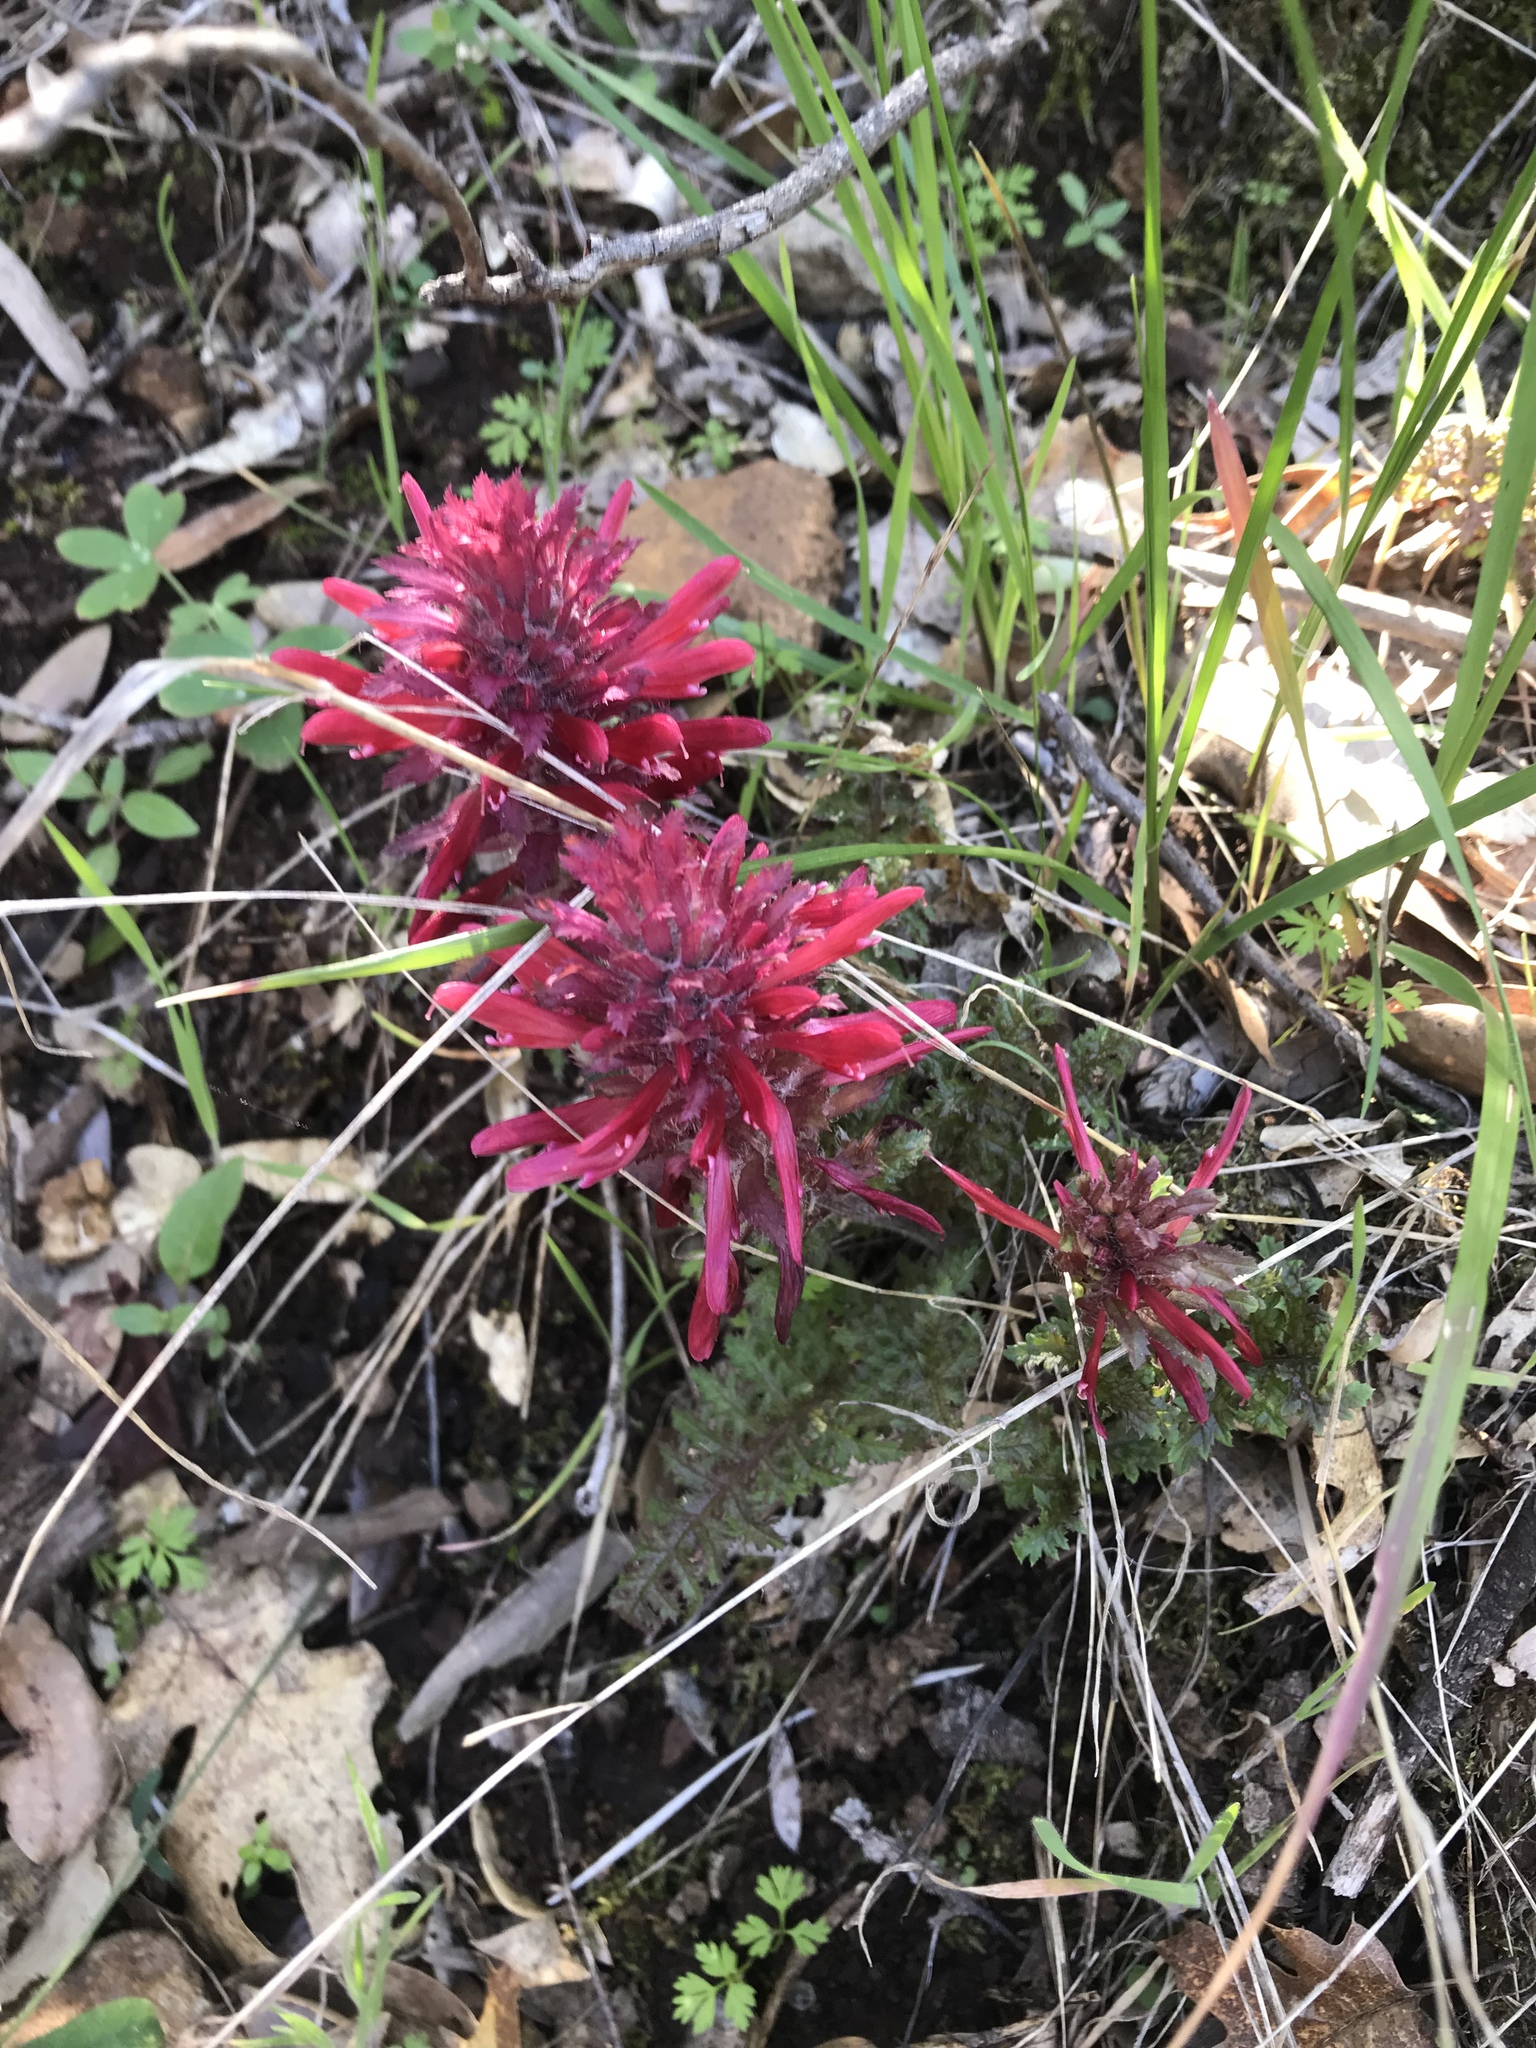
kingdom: Plantae
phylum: Tracheophyta
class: Magnoliopsida
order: Lamiales
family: Orobanchaceae
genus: Pedicularis
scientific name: Pedicularis densiflora
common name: Indian warrior
